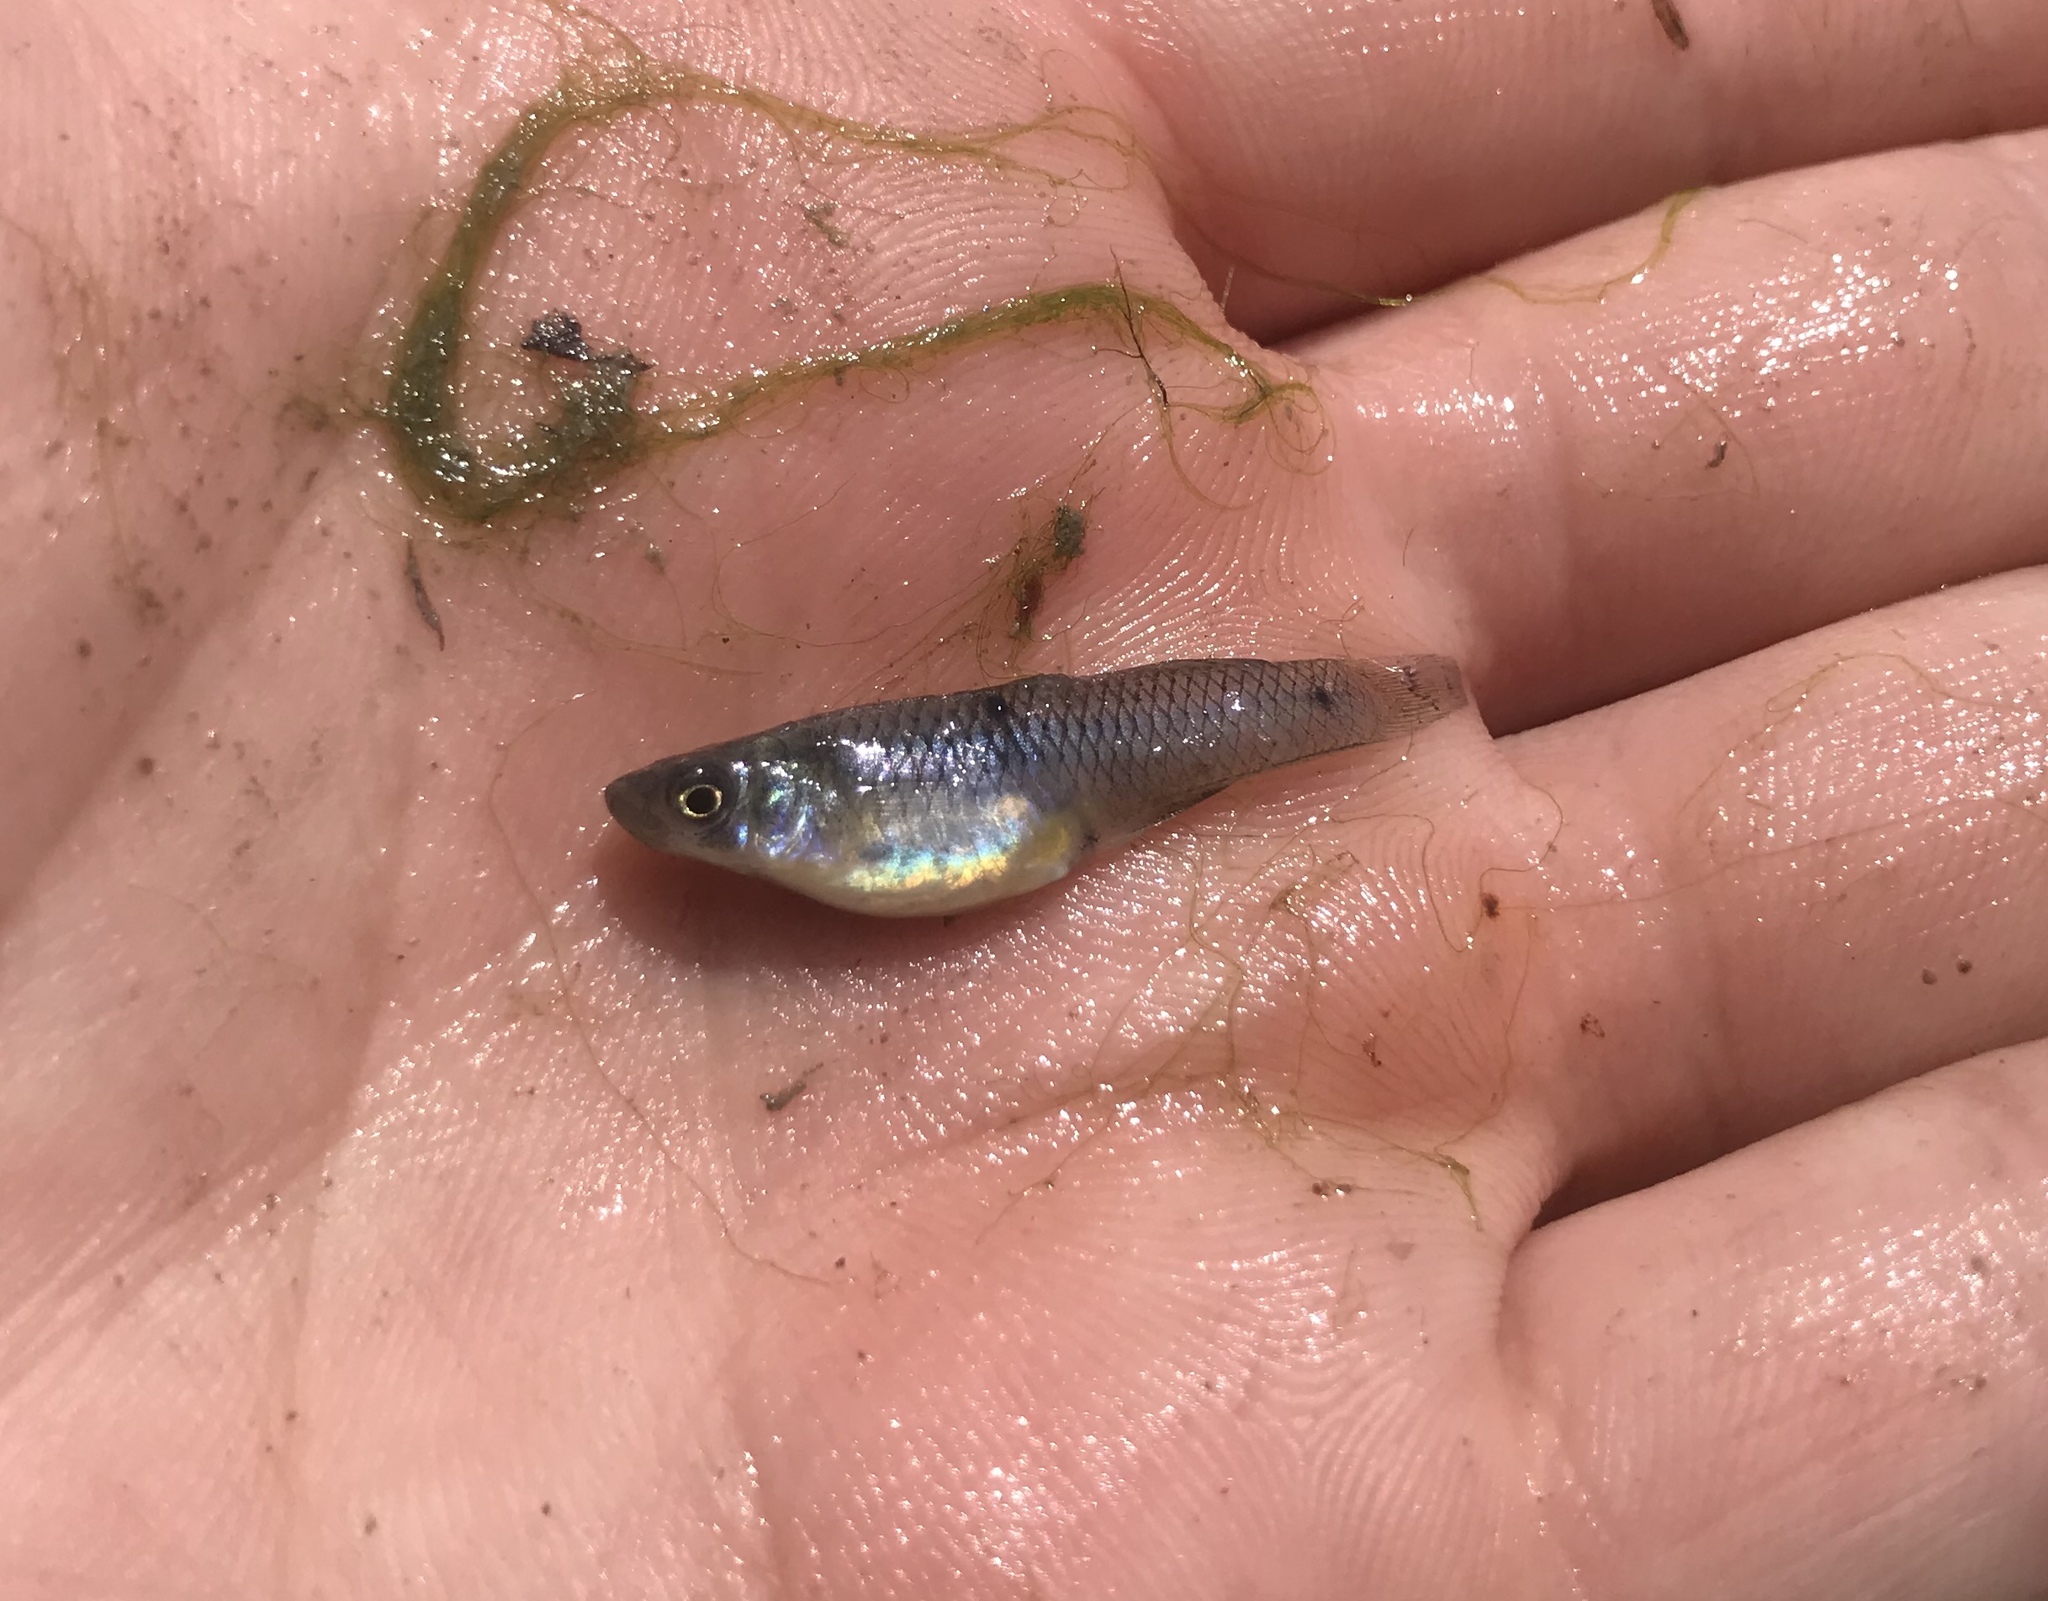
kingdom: Animalia
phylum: Chordata
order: Cyprinodontiformes
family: Poeciliidae
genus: Gambusia
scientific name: Gambusia affinis
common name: Mosquitofish
